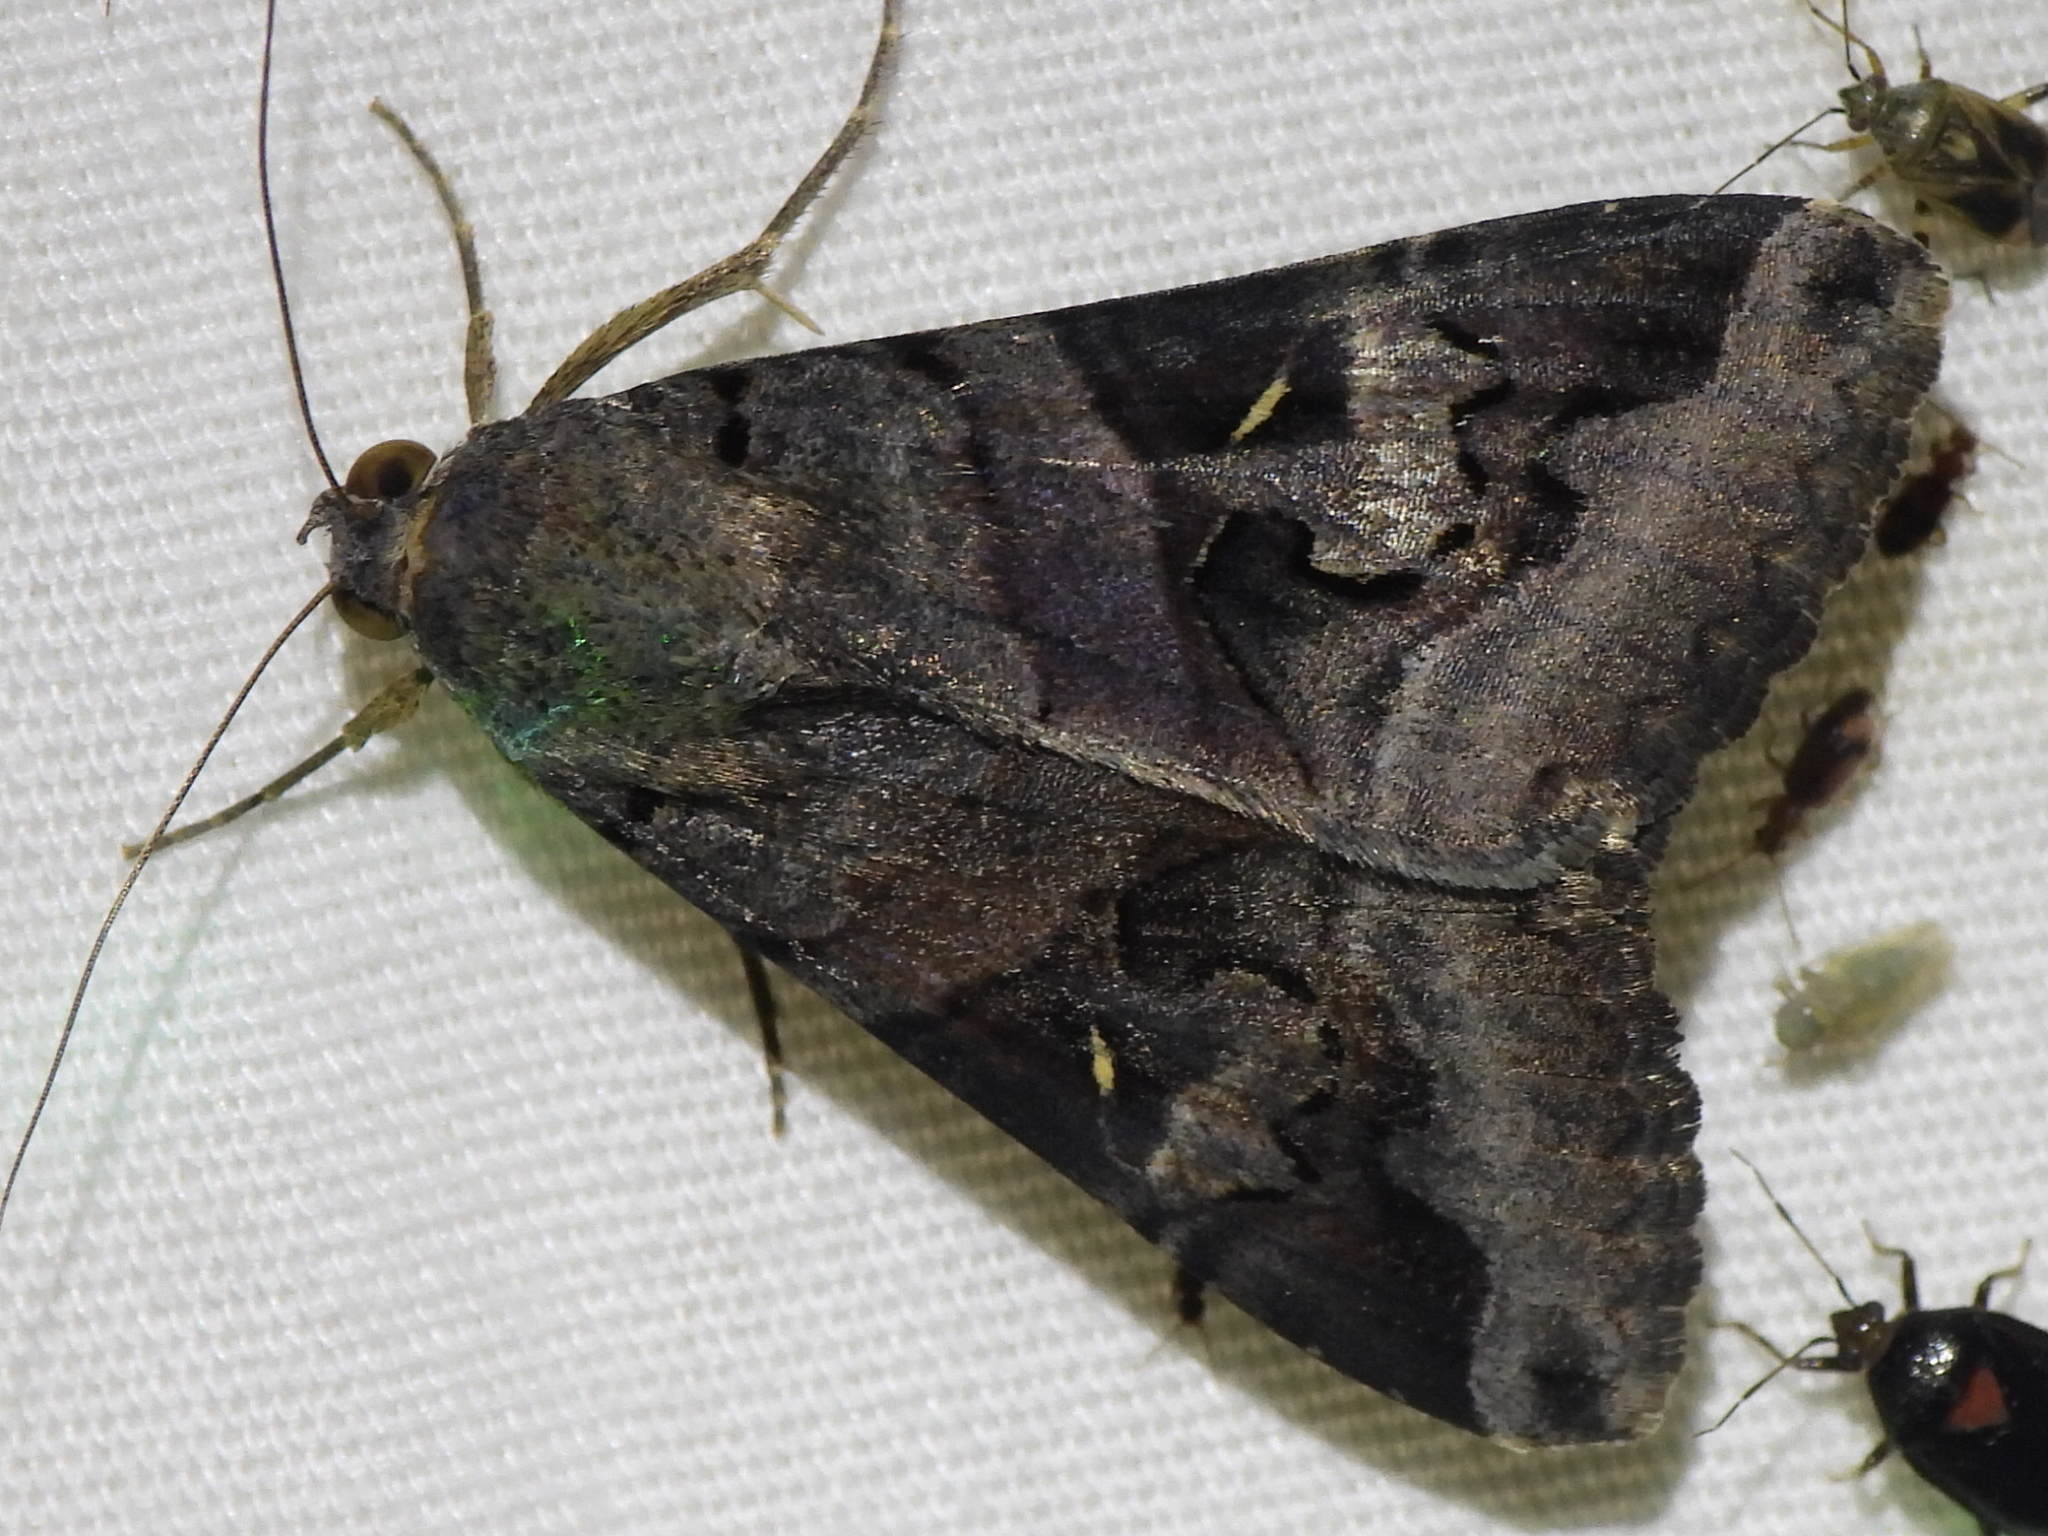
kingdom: Animalia
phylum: Arthropoda
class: Insecta
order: Lepidoptera
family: Erebidae
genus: Melipotis
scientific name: Melipotis indomita
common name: Moth
